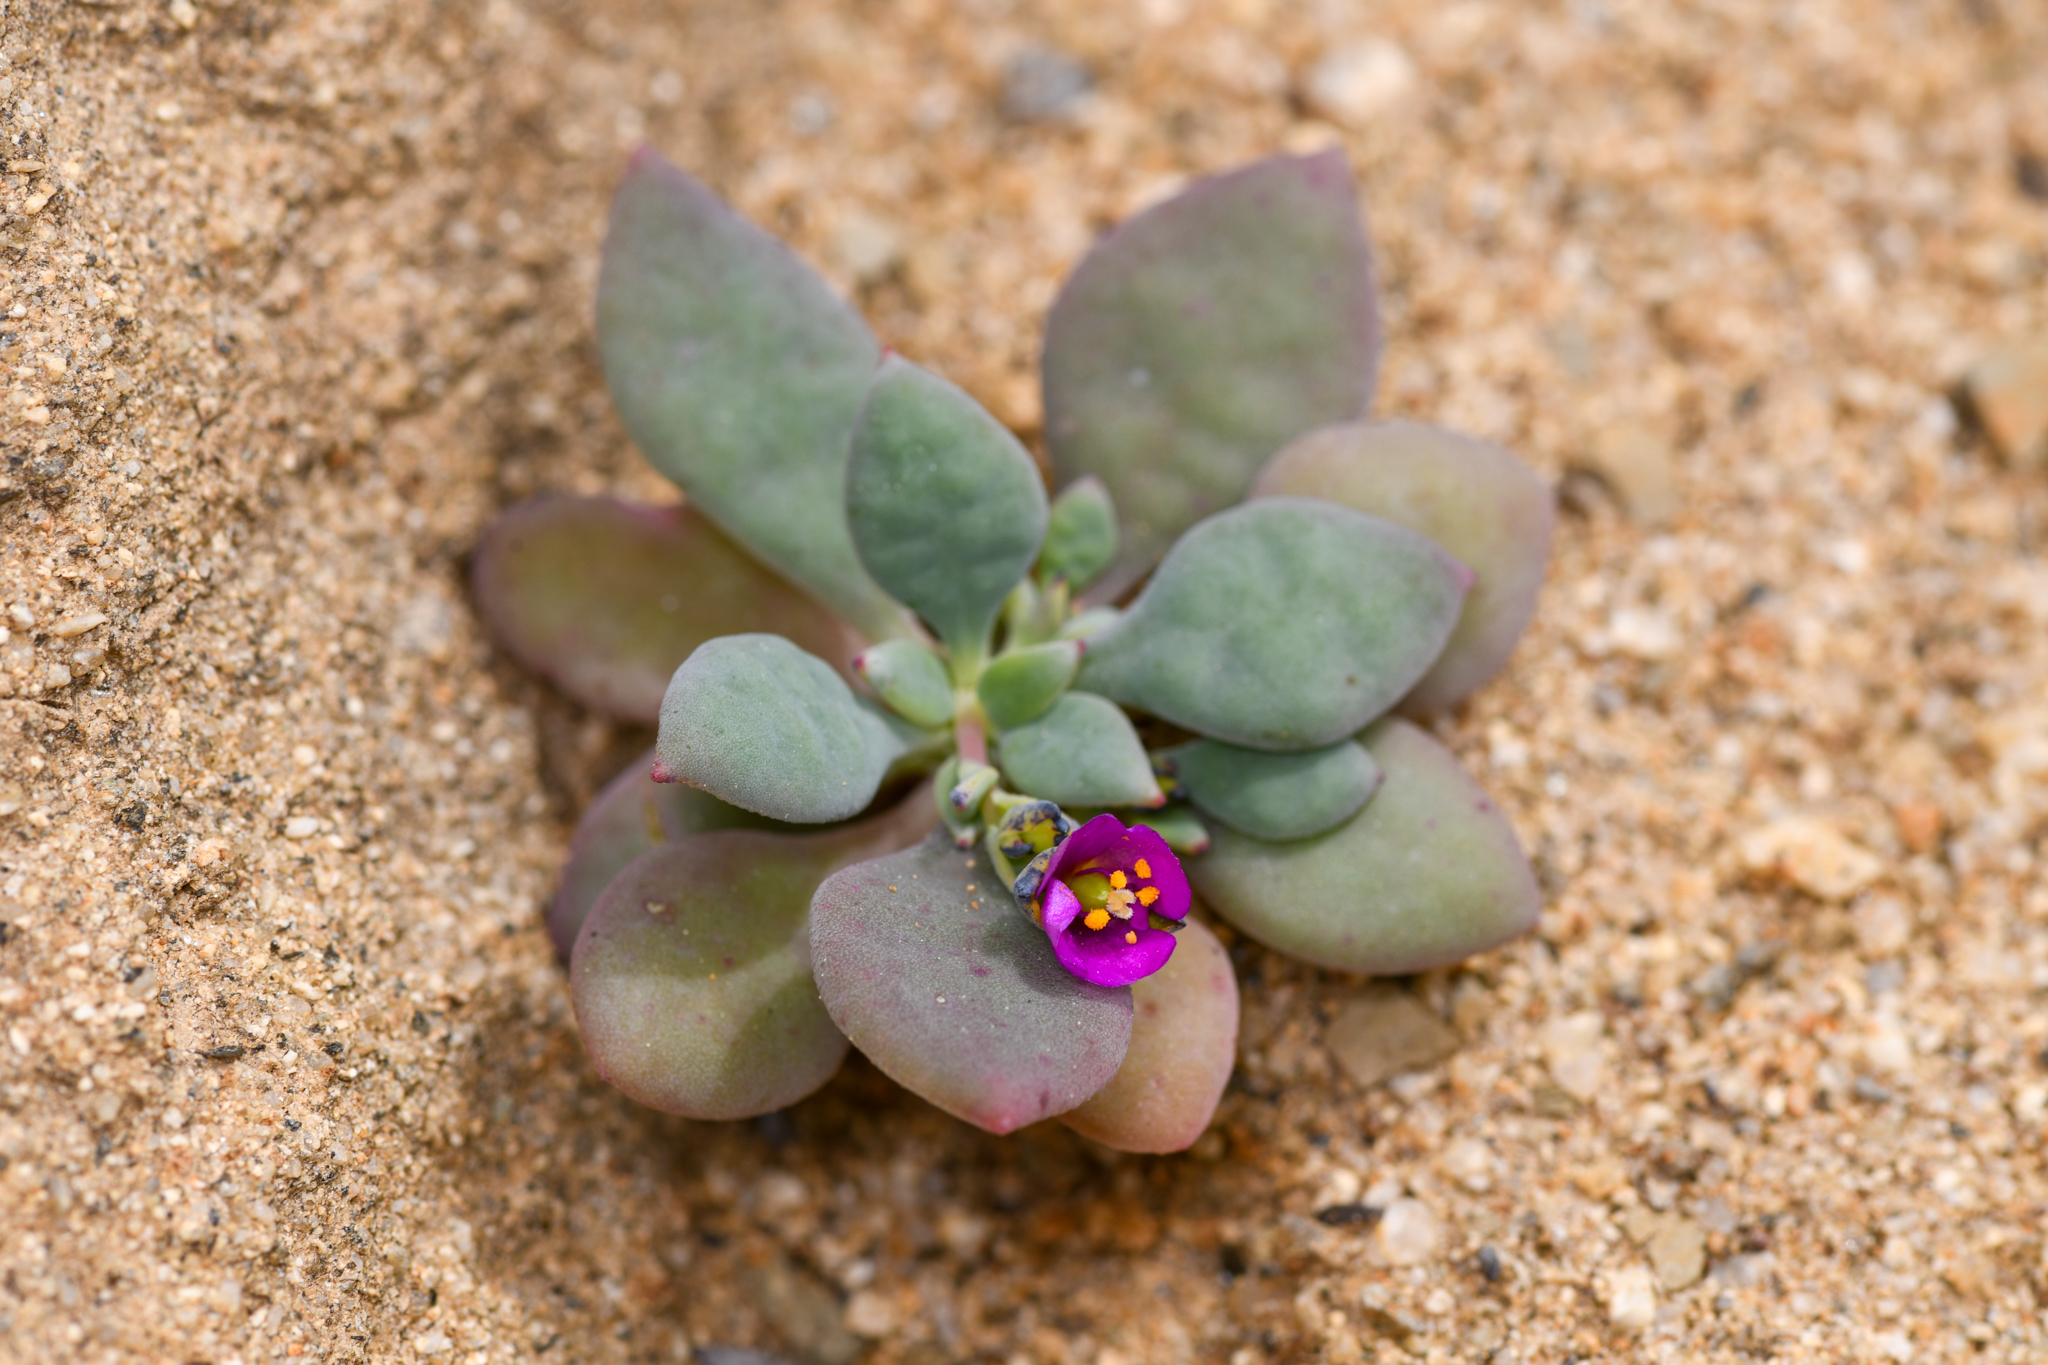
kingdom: Plantae
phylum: Tracheophyta
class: Magnoliopsida
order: Caryophyllales
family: Montiaceae
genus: Cistanthe
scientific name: Cistanthe maritima
